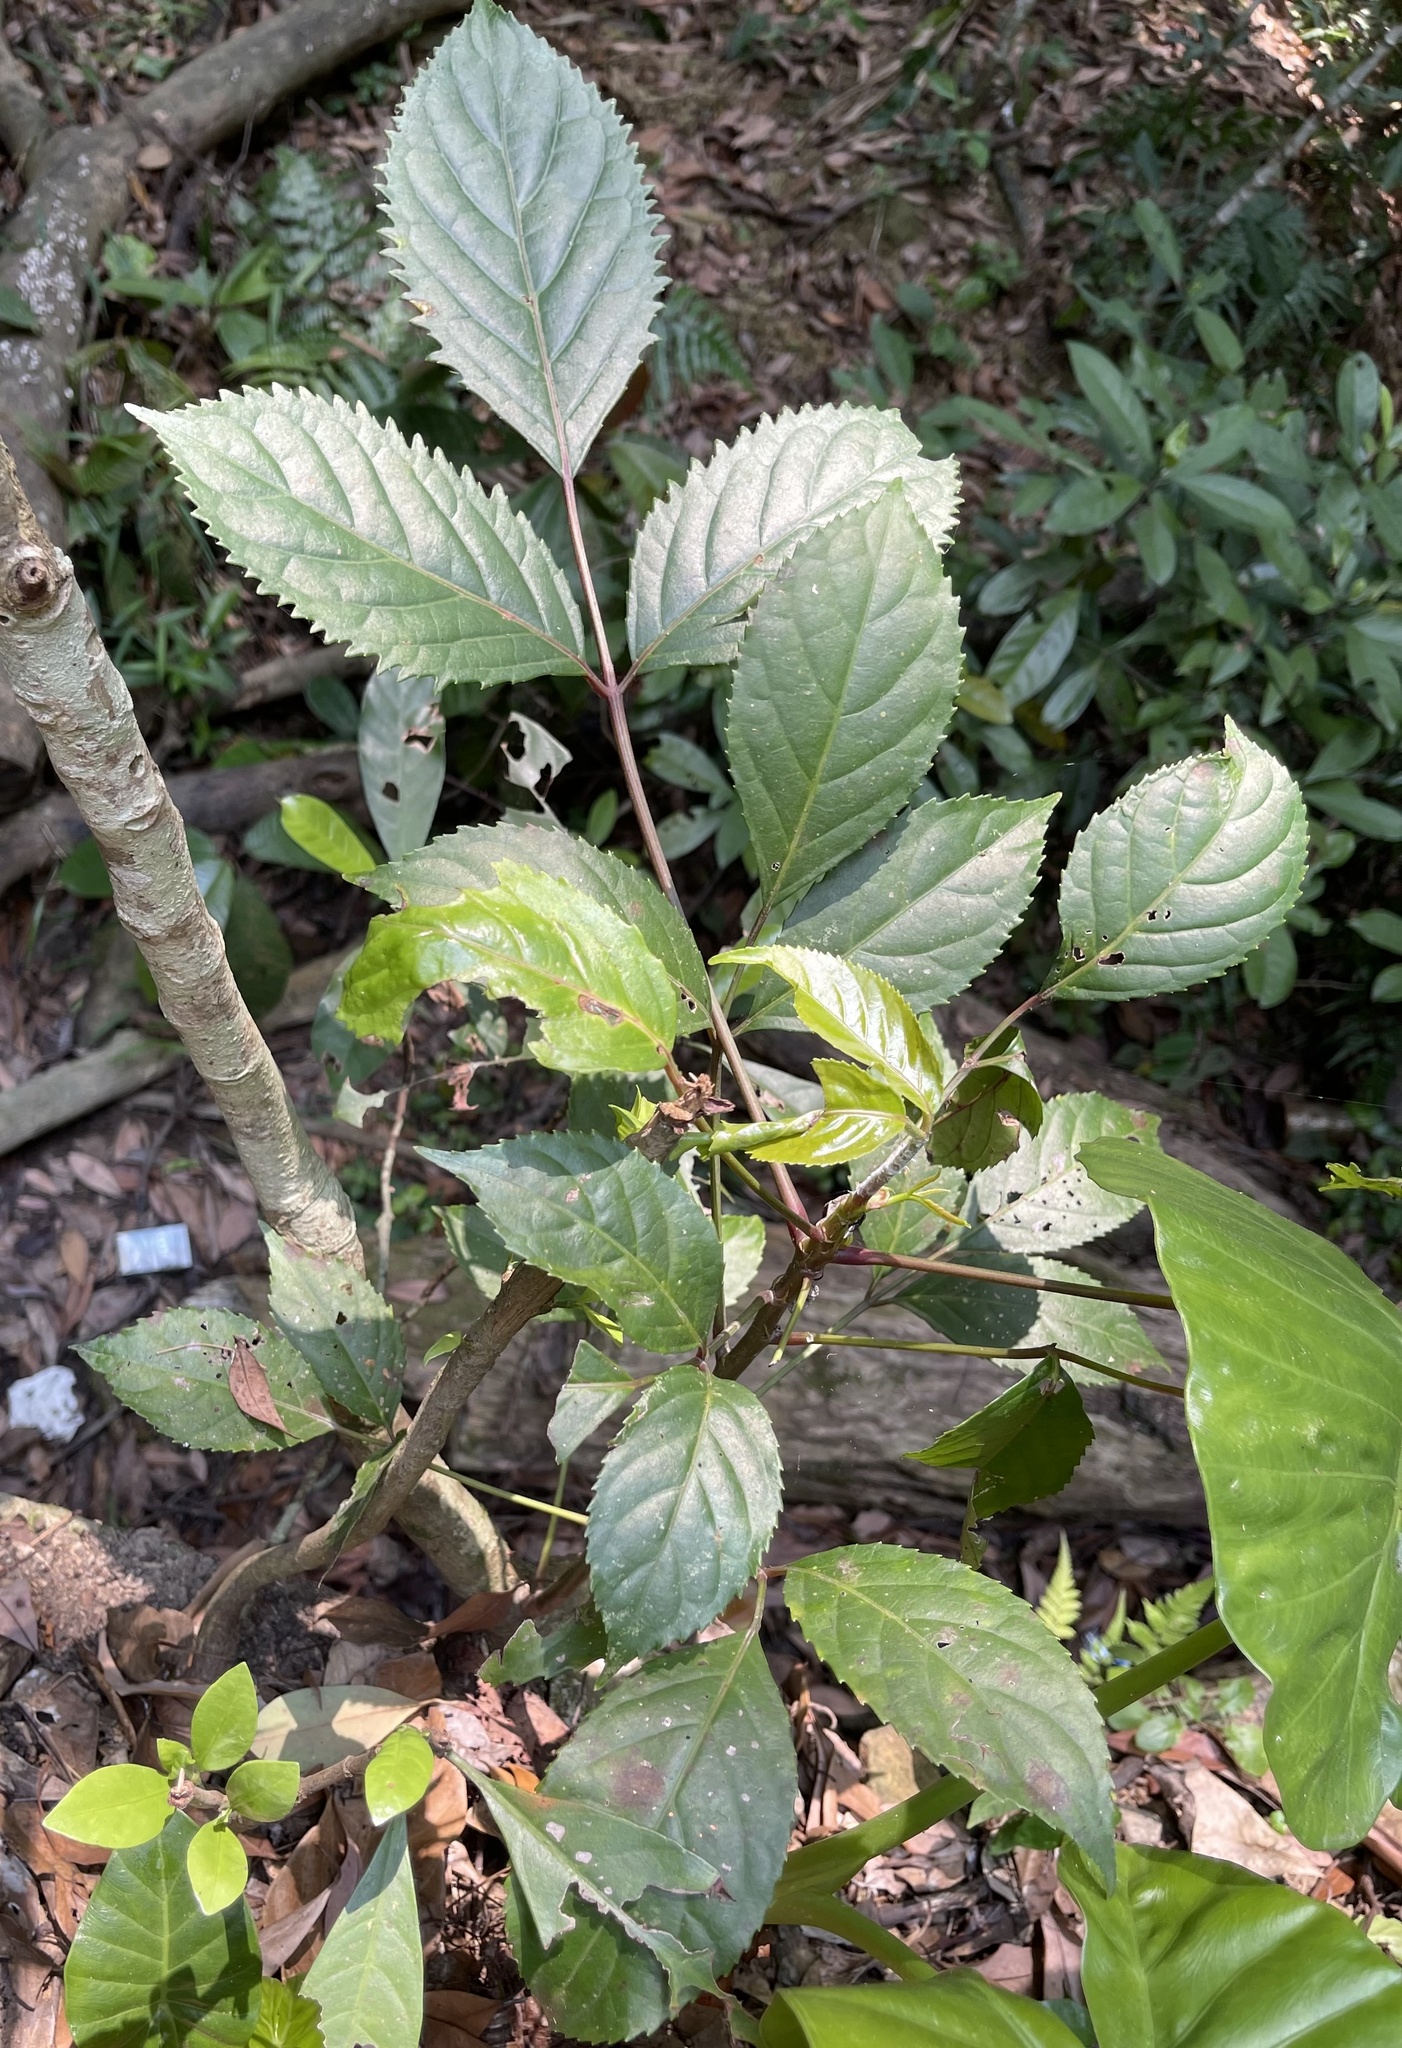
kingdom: Plantae
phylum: Tracheophyta
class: Magnoliopsida
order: Malpighiales
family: Phyllanthaceae
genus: Bischofia
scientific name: Bischofia javanica
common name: Javanese bishopwood
